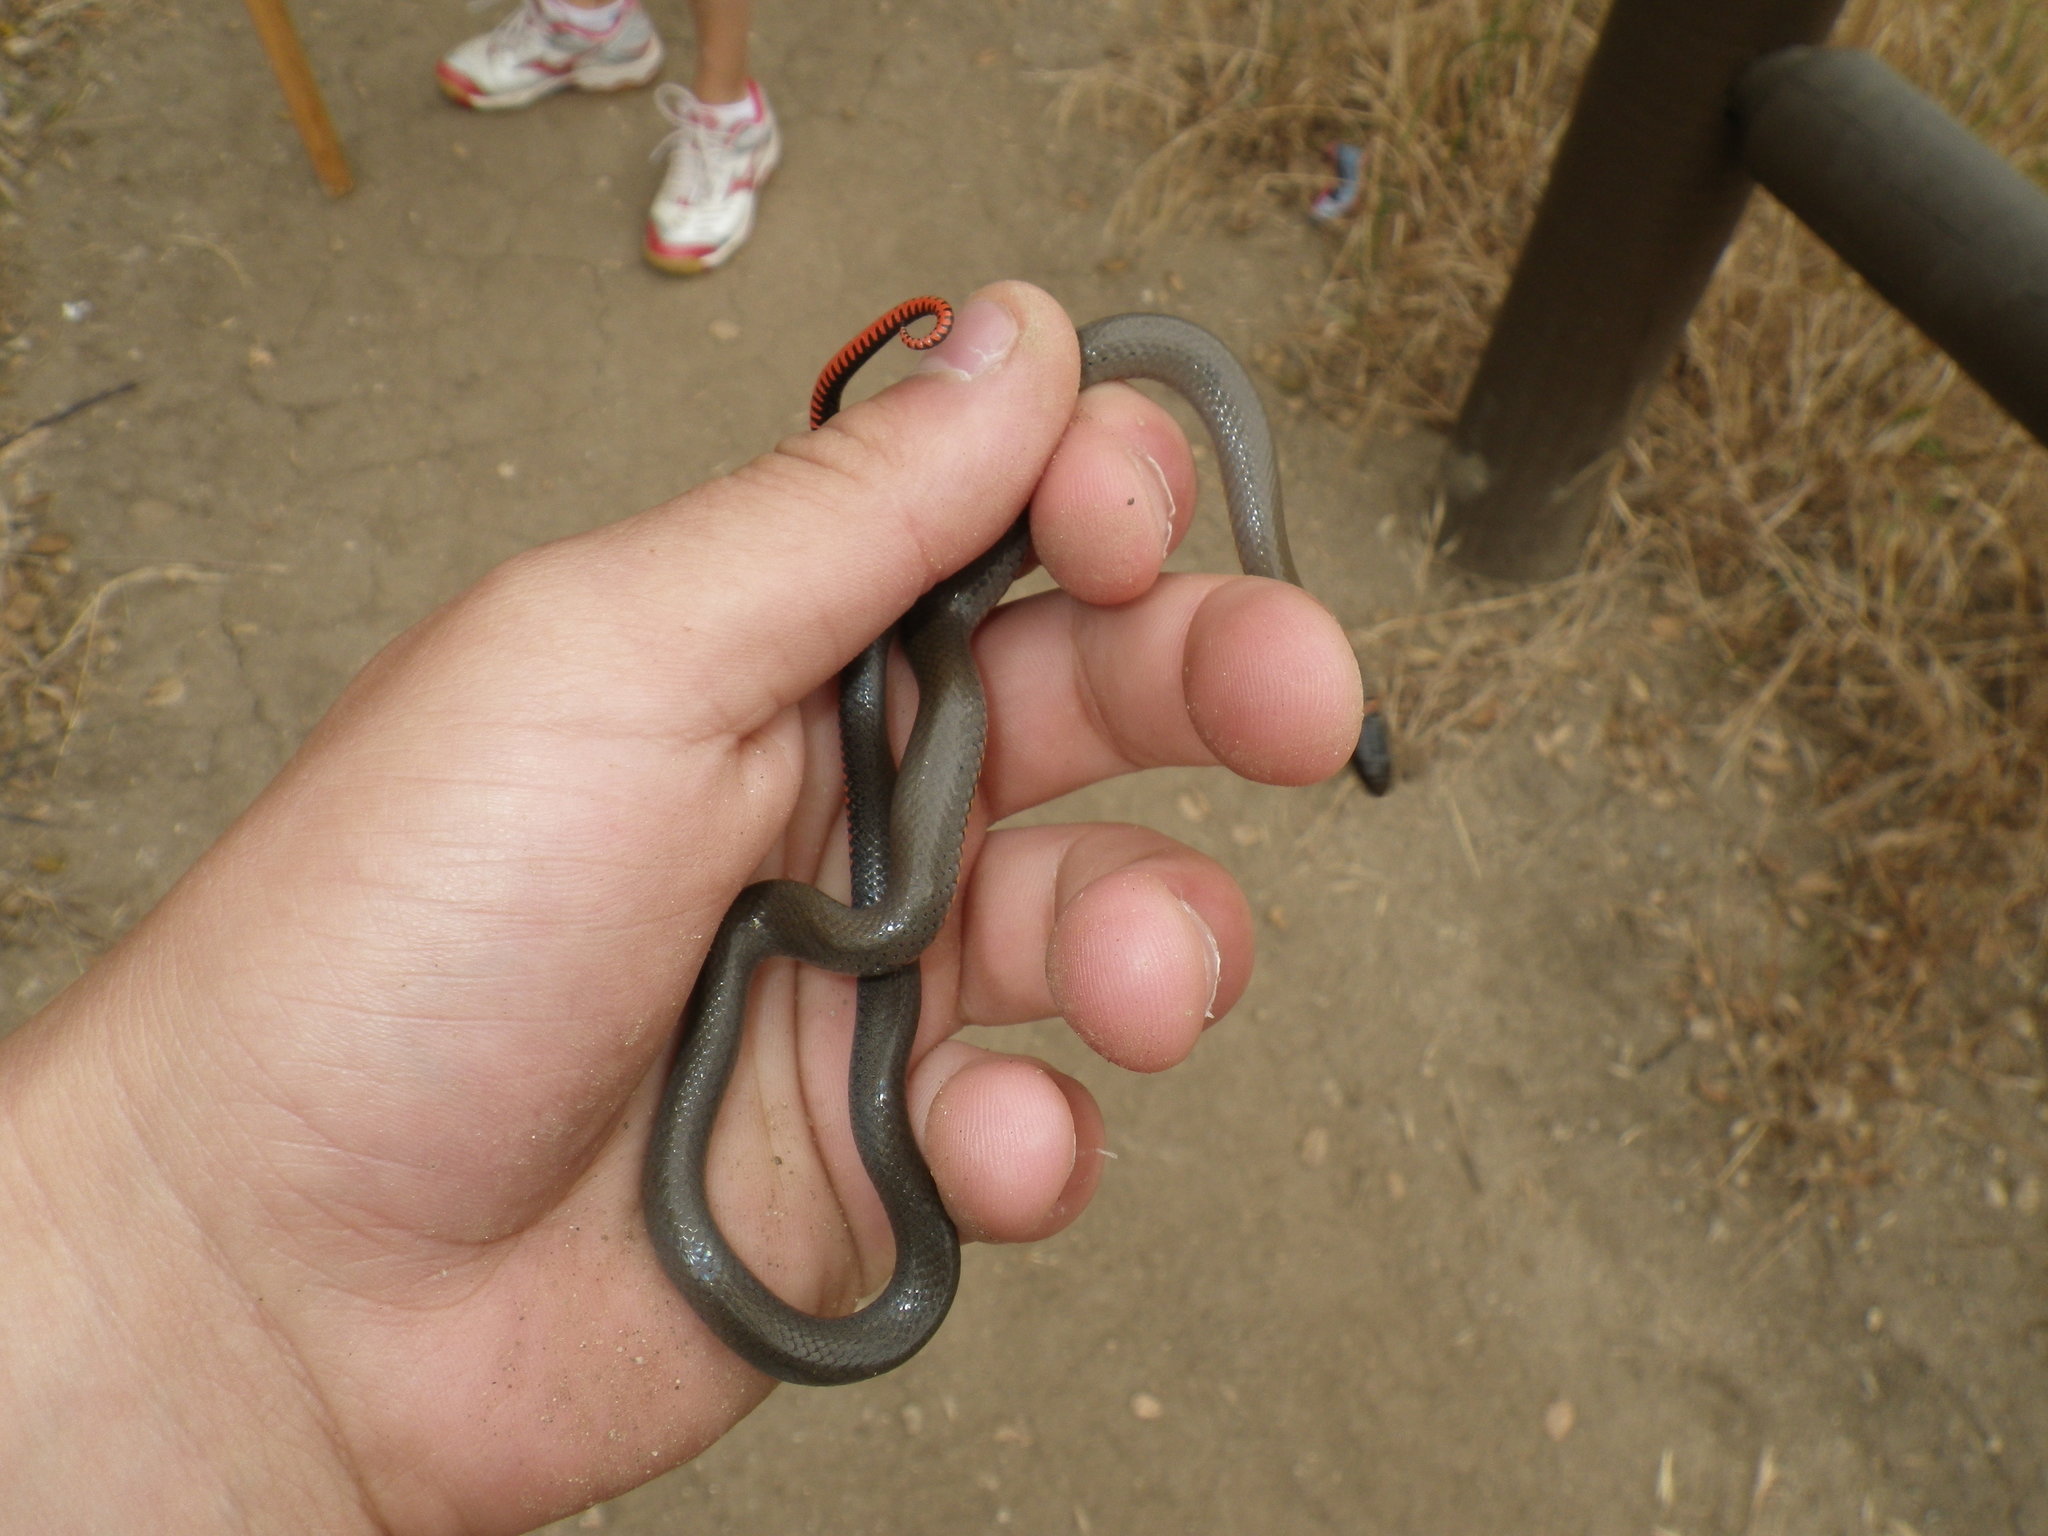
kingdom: Animalia
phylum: Chordata
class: Squamata
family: Colubridae
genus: Diadophis
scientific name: Diadophis punctatus
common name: Ringneck snake
